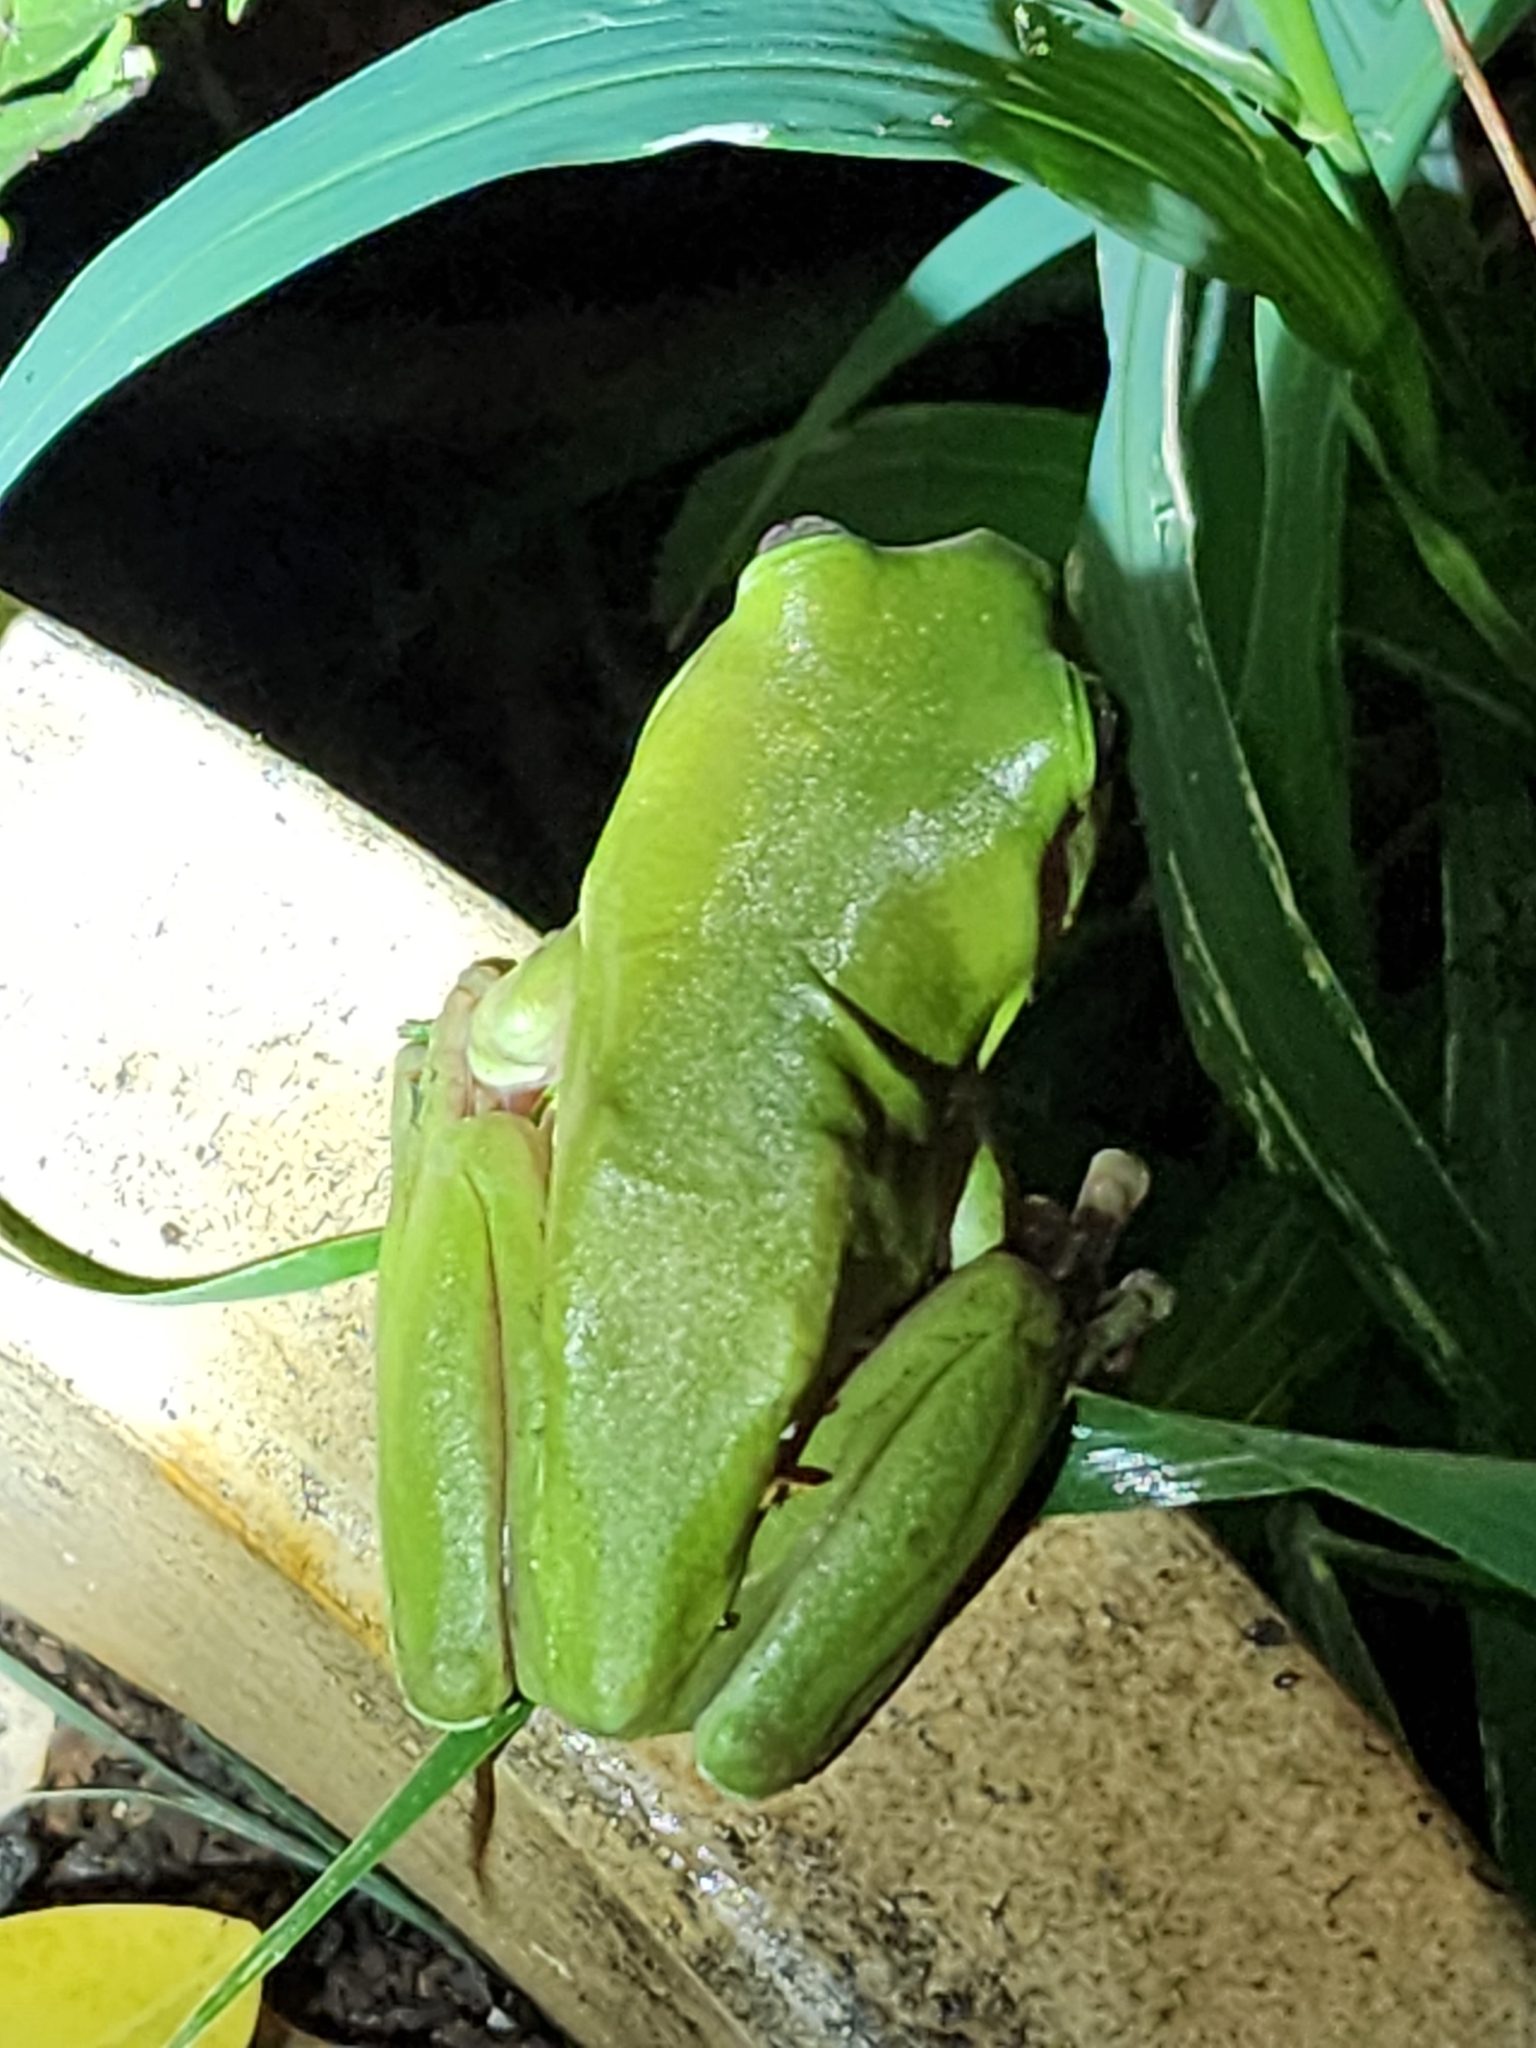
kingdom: Animalia
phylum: Chordata
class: Amphibia
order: Anura
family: Pelodryadidae
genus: Ranoidea
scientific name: Ranoidea caerulea
